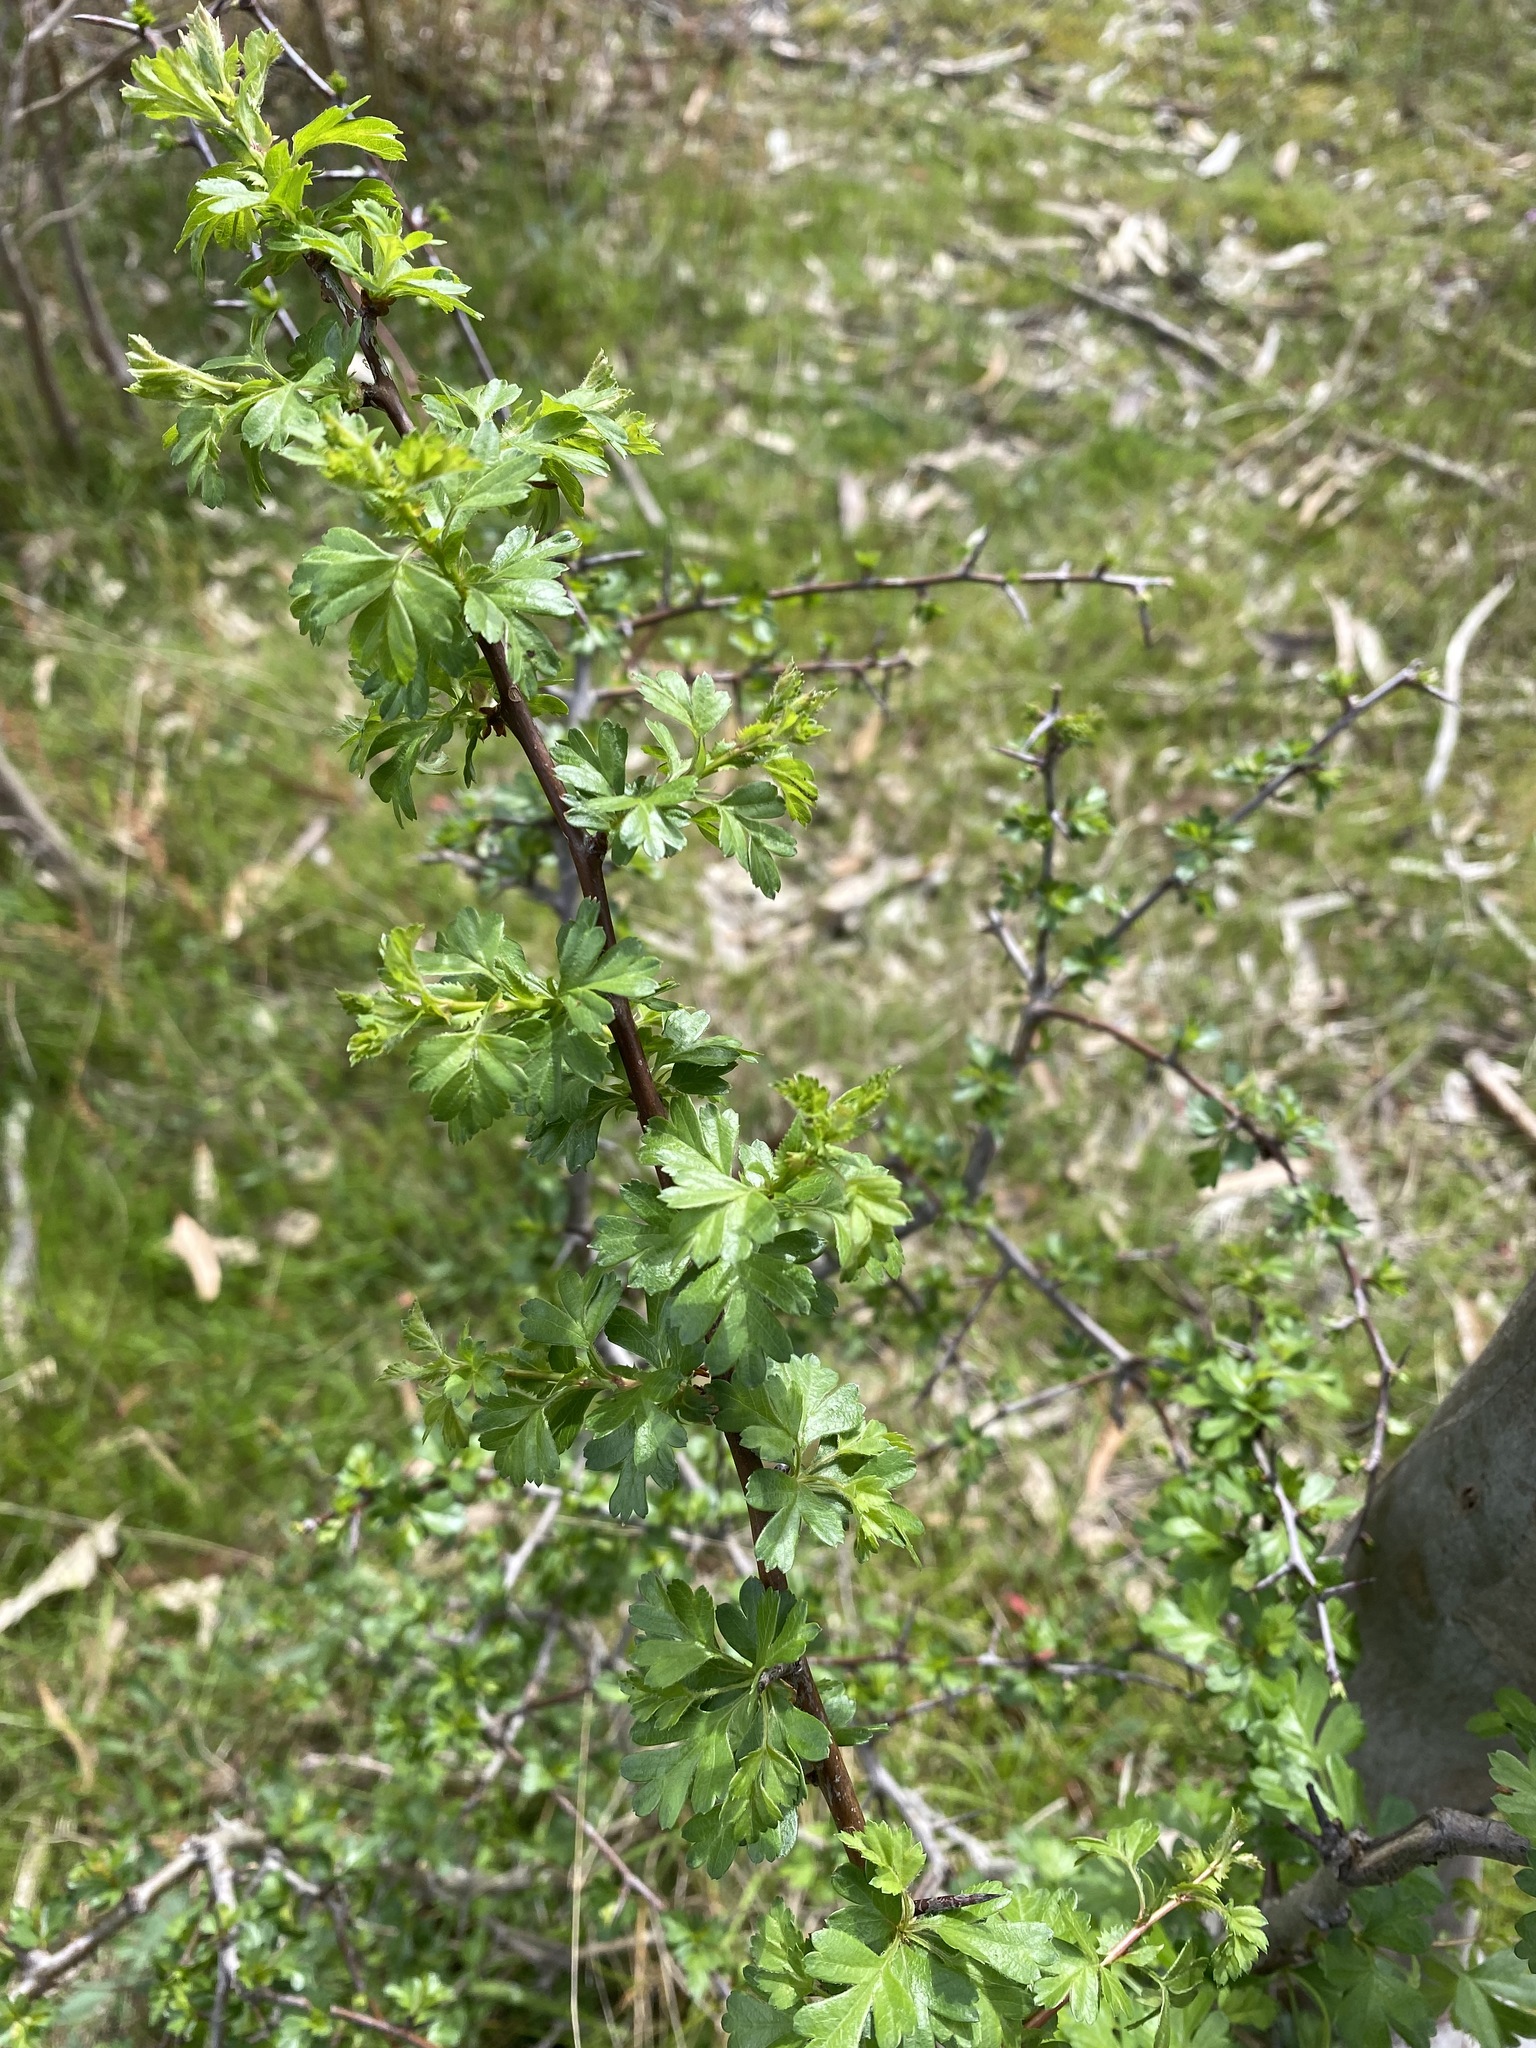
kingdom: Plantae
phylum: Tracheophyta
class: Magnoliopsida
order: Rosales
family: Rosaceae
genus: Crataegus
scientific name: Crataegus monogyna
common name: Hawthorn
